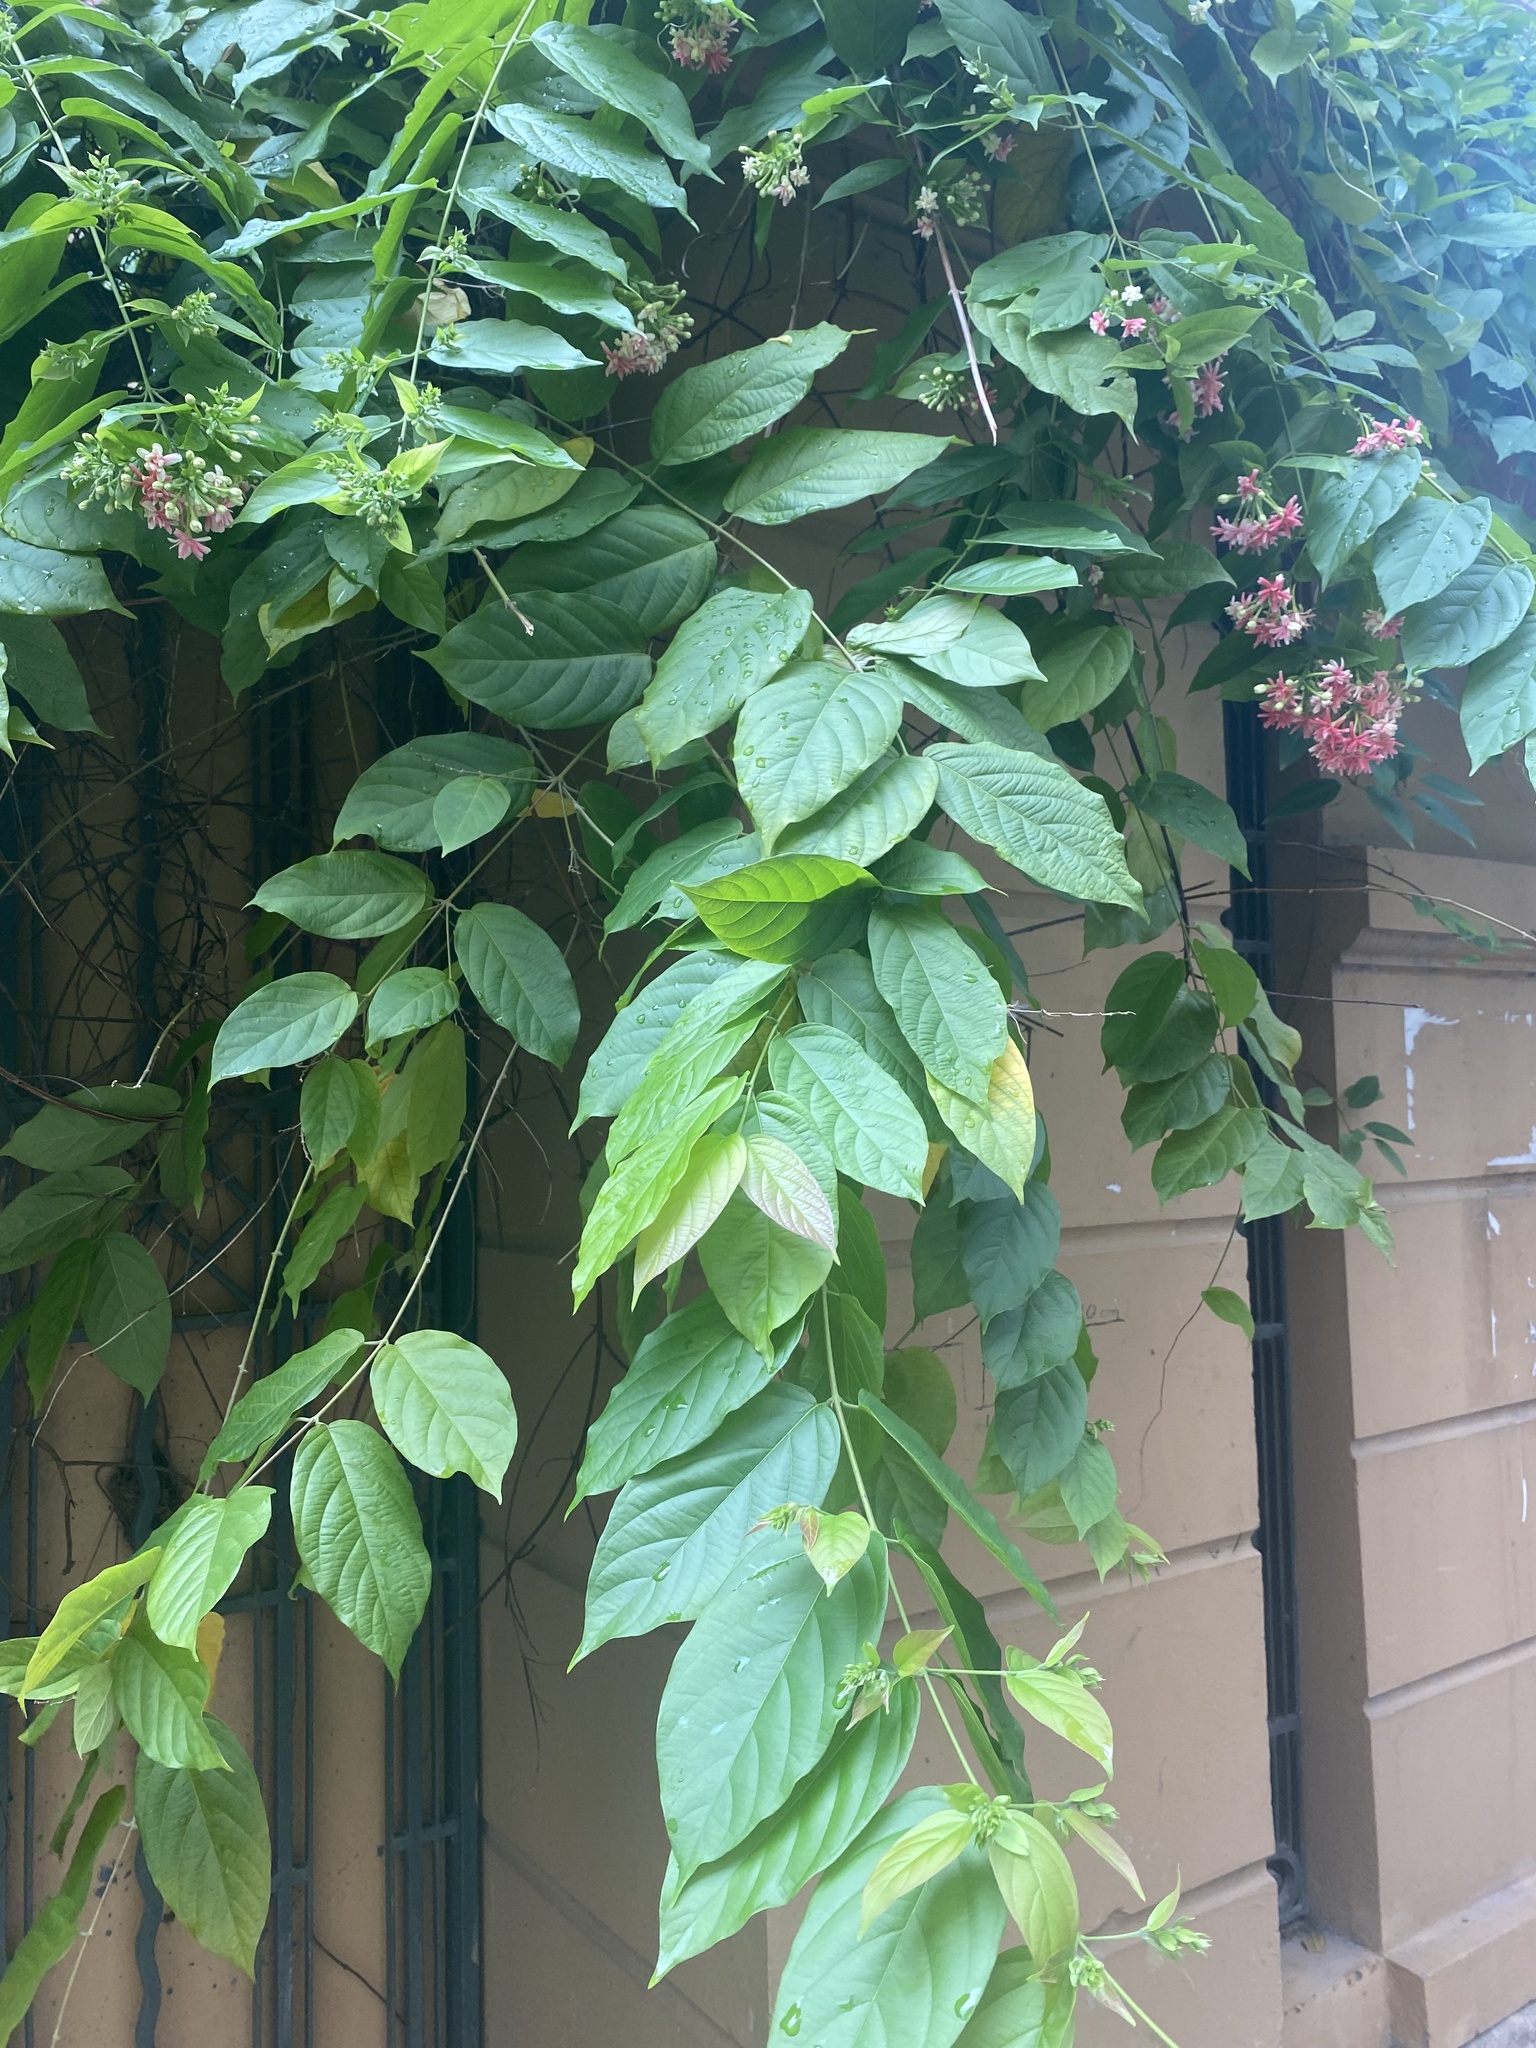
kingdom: Plantae
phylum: Tracheophyta
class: Magnoliopsida
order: Myrtales
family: Combretaceae
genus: Combretum
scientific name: Combretum indicum
